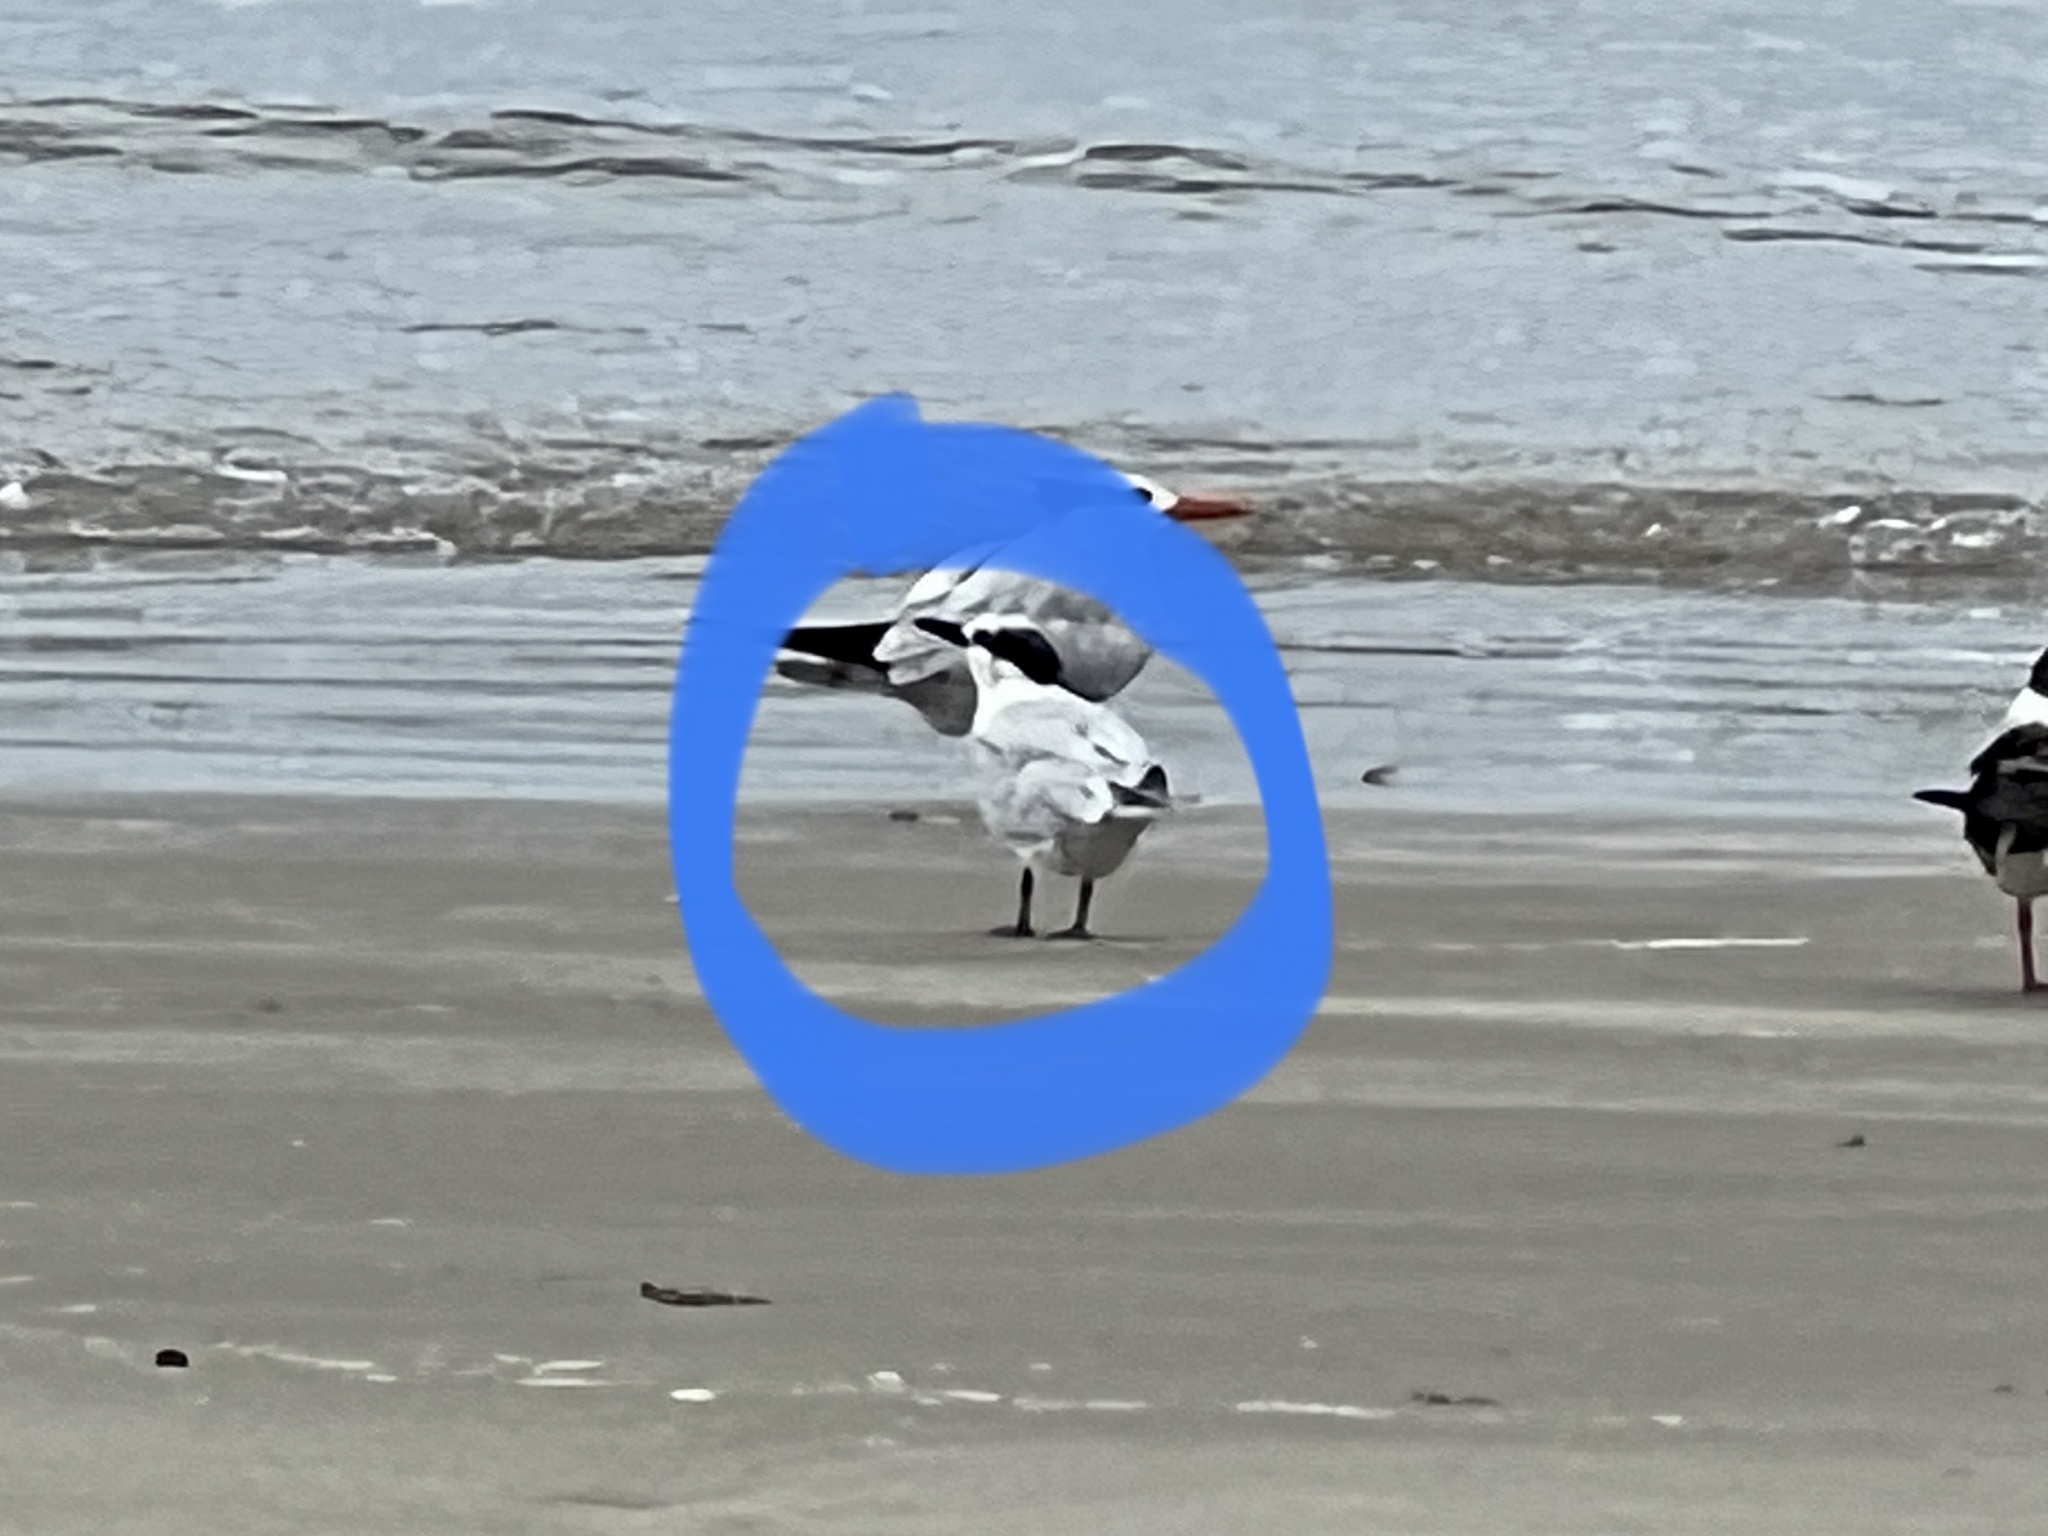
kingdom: Animalia
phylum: Chordata
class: Aves
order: Charadriiformes
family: Laridae
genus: Thalasseus
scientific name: Thalasseus sandvicensis
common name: Sandwich tern
